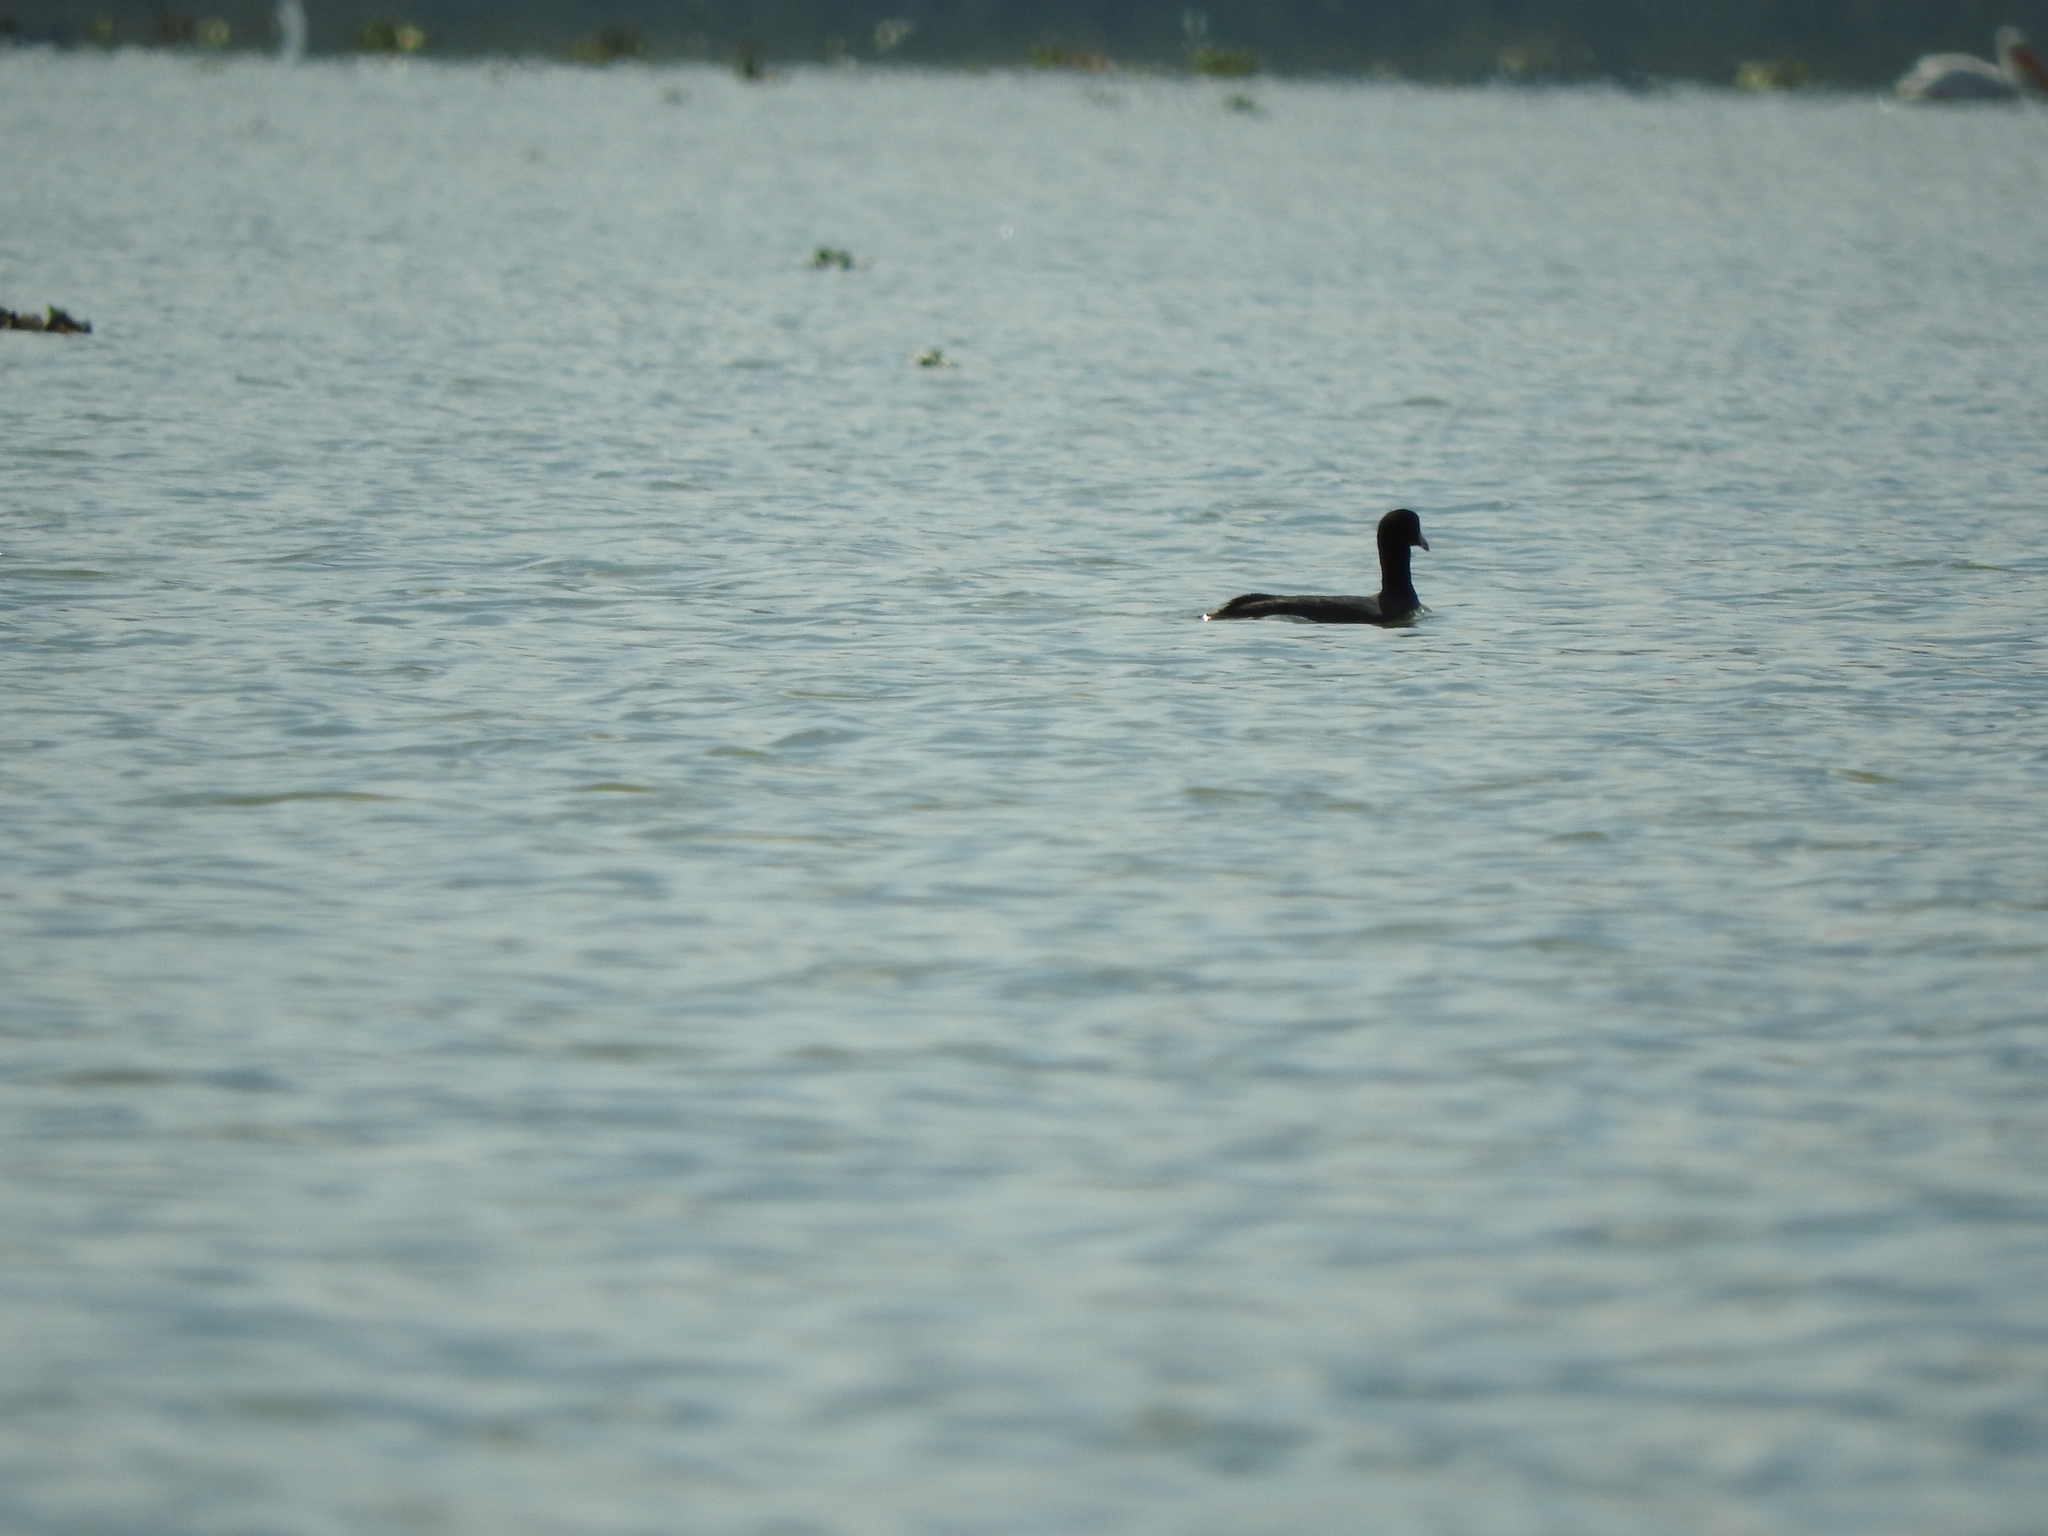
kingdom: Animalia
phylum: Chordata
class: Aves
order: Gruiformes
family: Rallidae
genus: Fulica
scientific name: Fulica americana
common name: American coot
